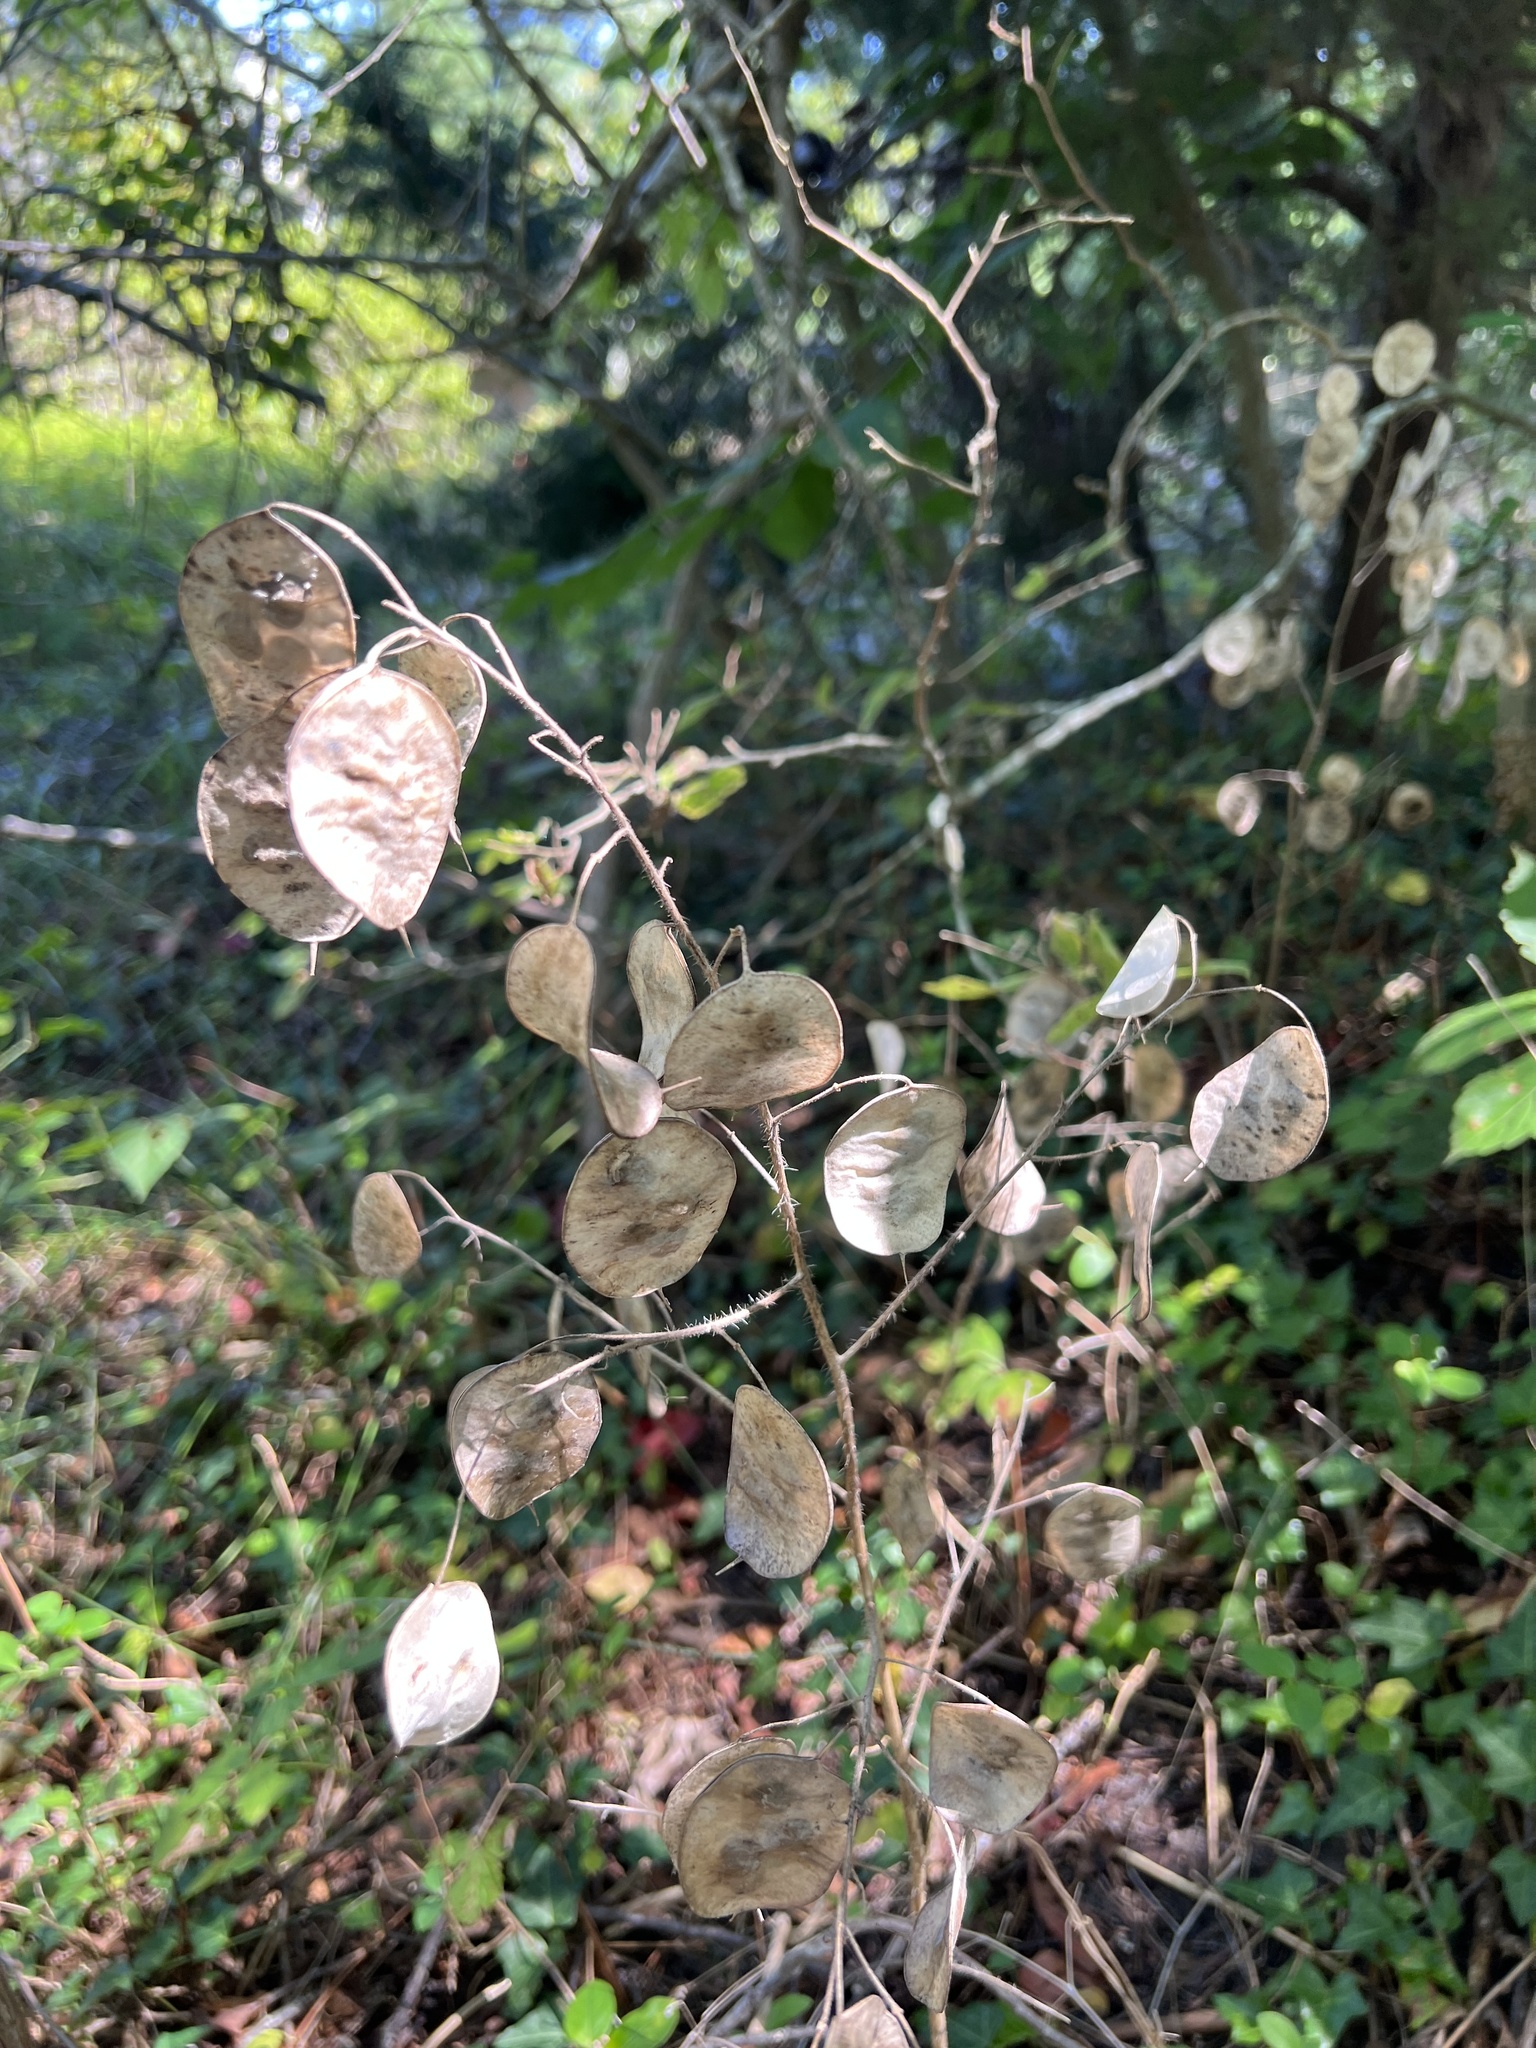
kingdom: Plantae
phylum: Tracheophyta
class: Magnoliopsida
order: Brassicales
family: Brassicaceae
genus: Lunaria
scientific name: Lunaria annua
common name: Honesty
